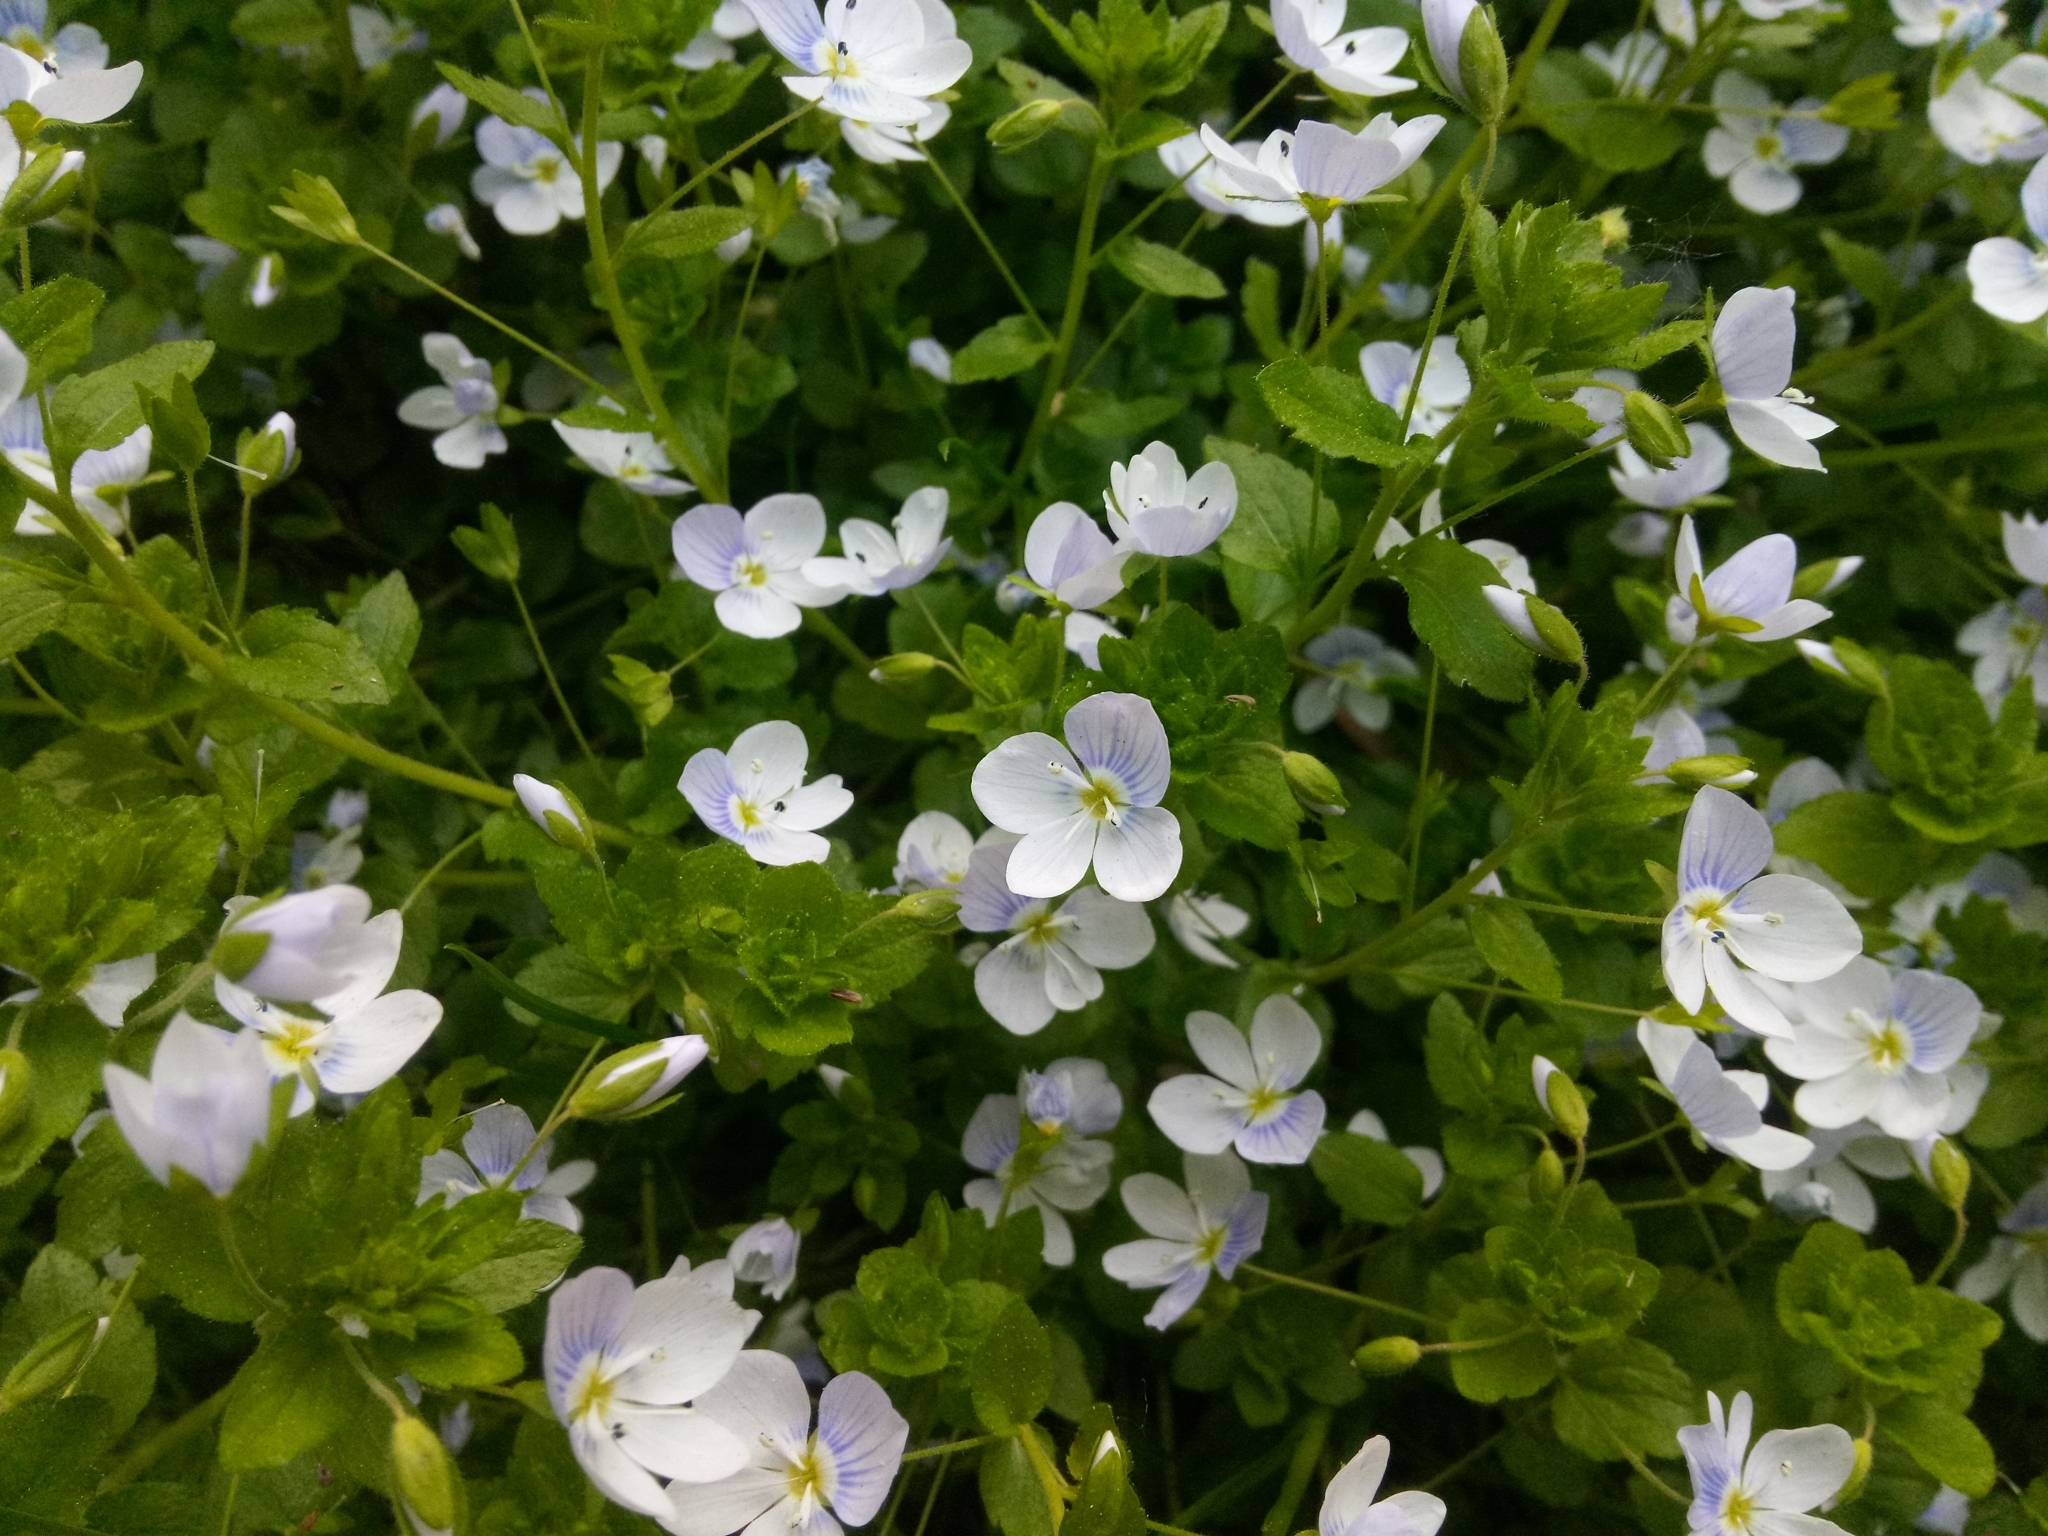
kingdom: Plantae
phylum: Tracheophyta
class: Magnoliopsida
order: Lamiales
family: Plantaginaceae
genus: Veronica
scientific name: Veronica filiformis
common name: Slender speedwell
